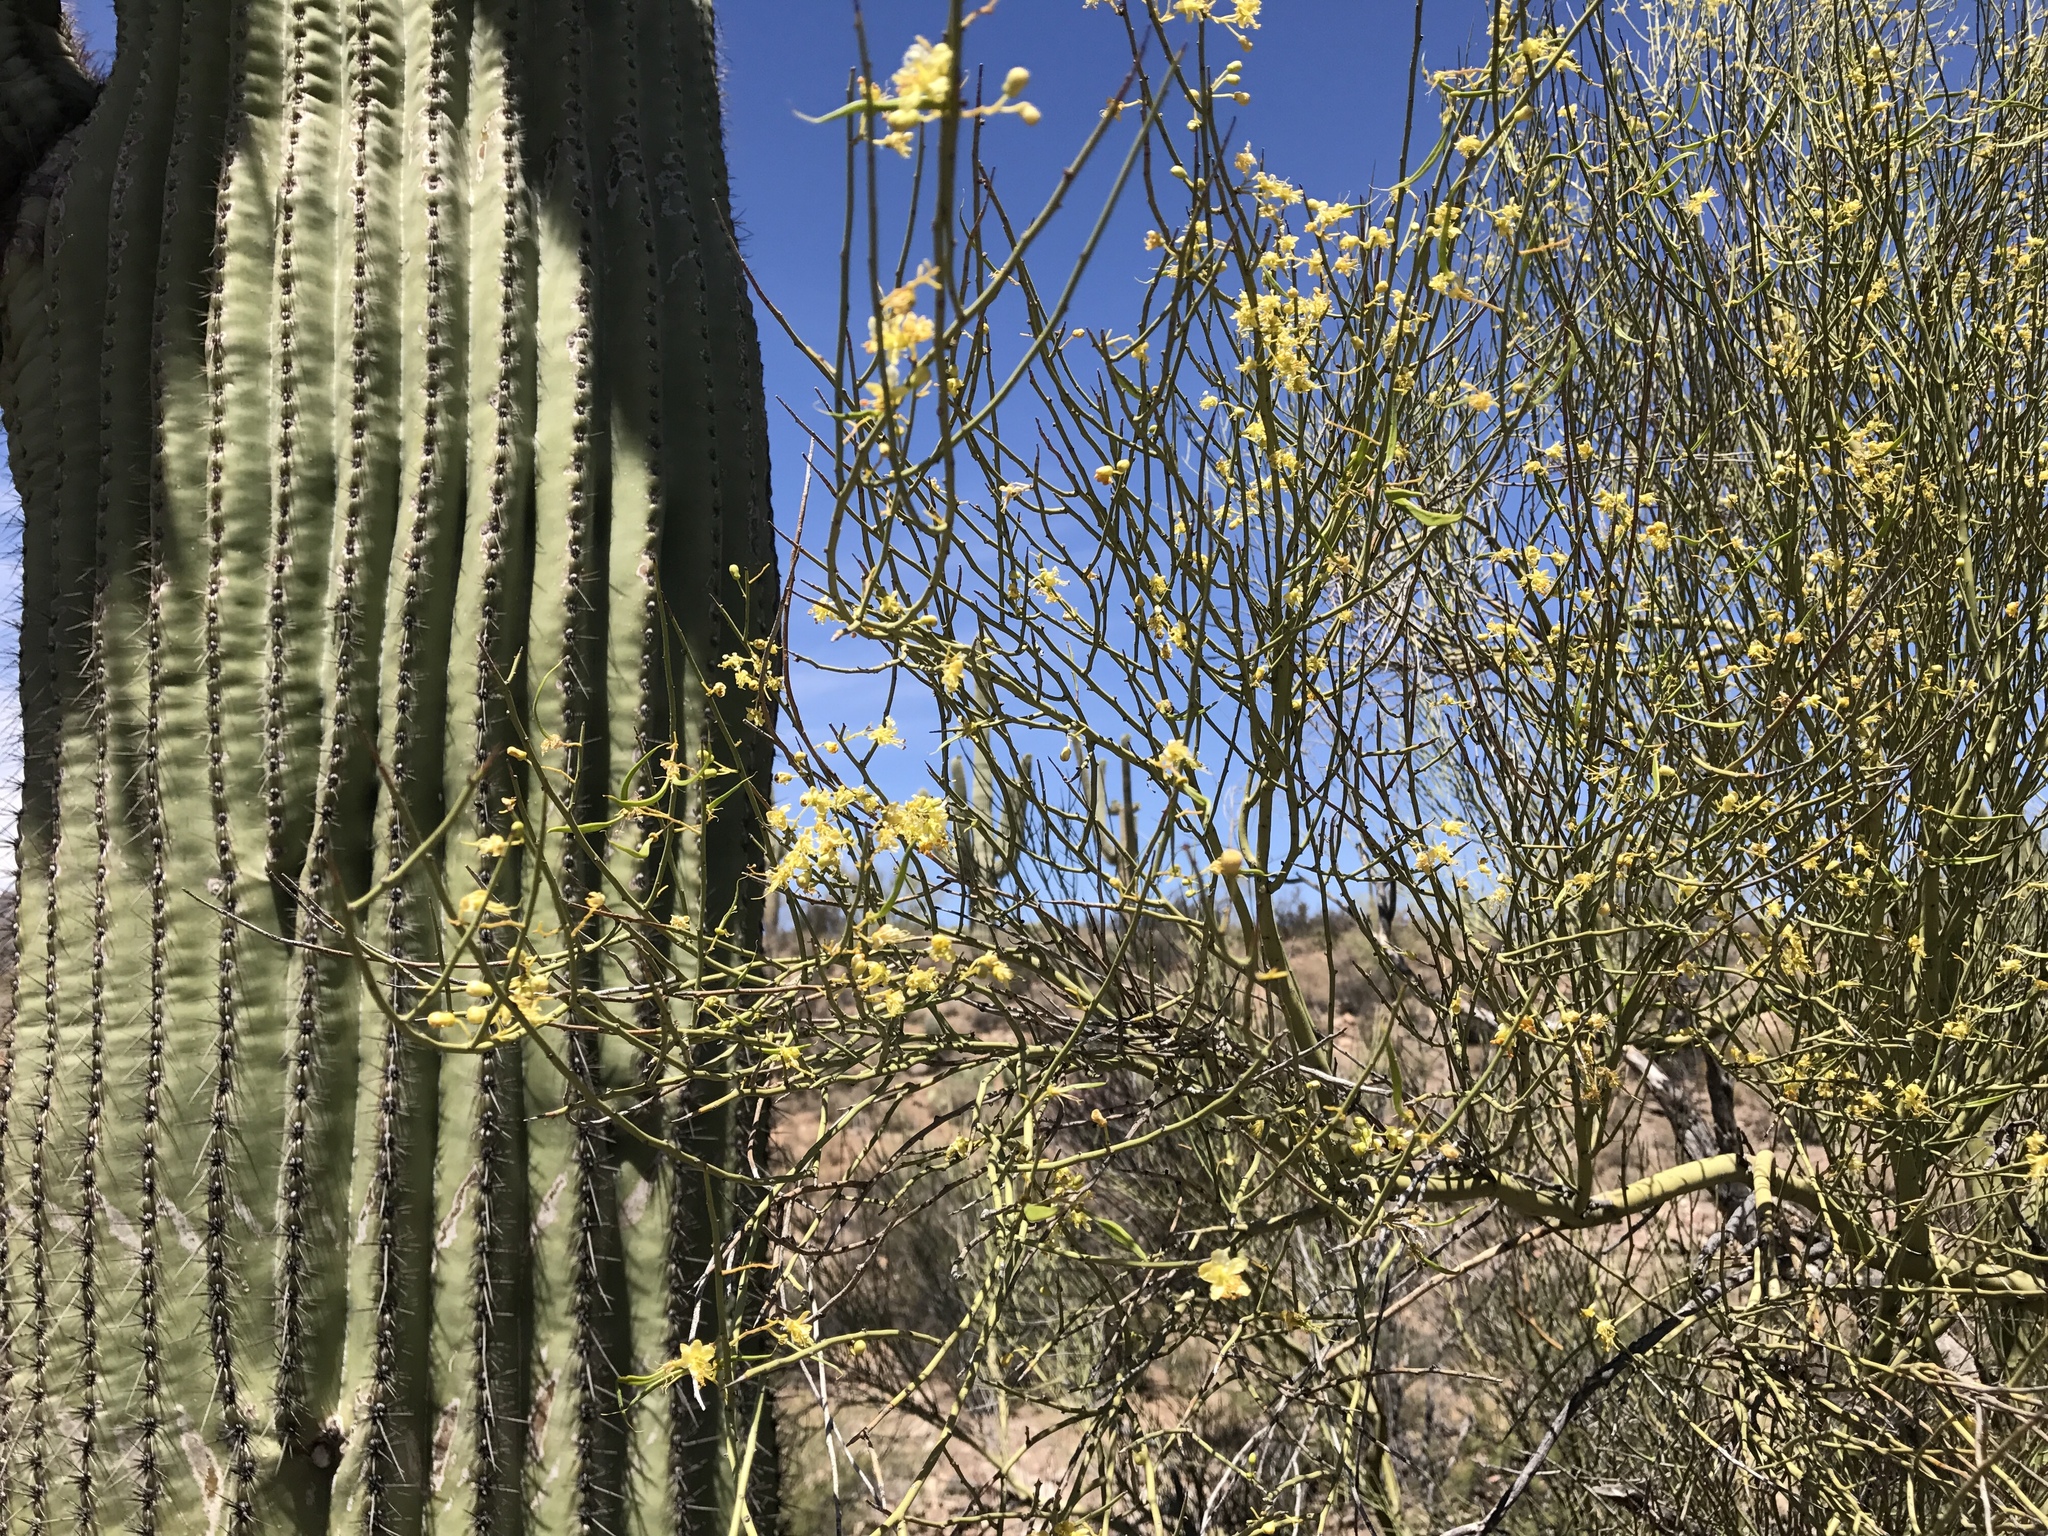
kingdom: Plantae
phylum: Tracheophyta
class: Magnoliopsida
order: Fabales
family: Fabaceae
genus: Parkinsonia
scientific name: Parkinsonia microphylla
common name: Yellow paloverde
